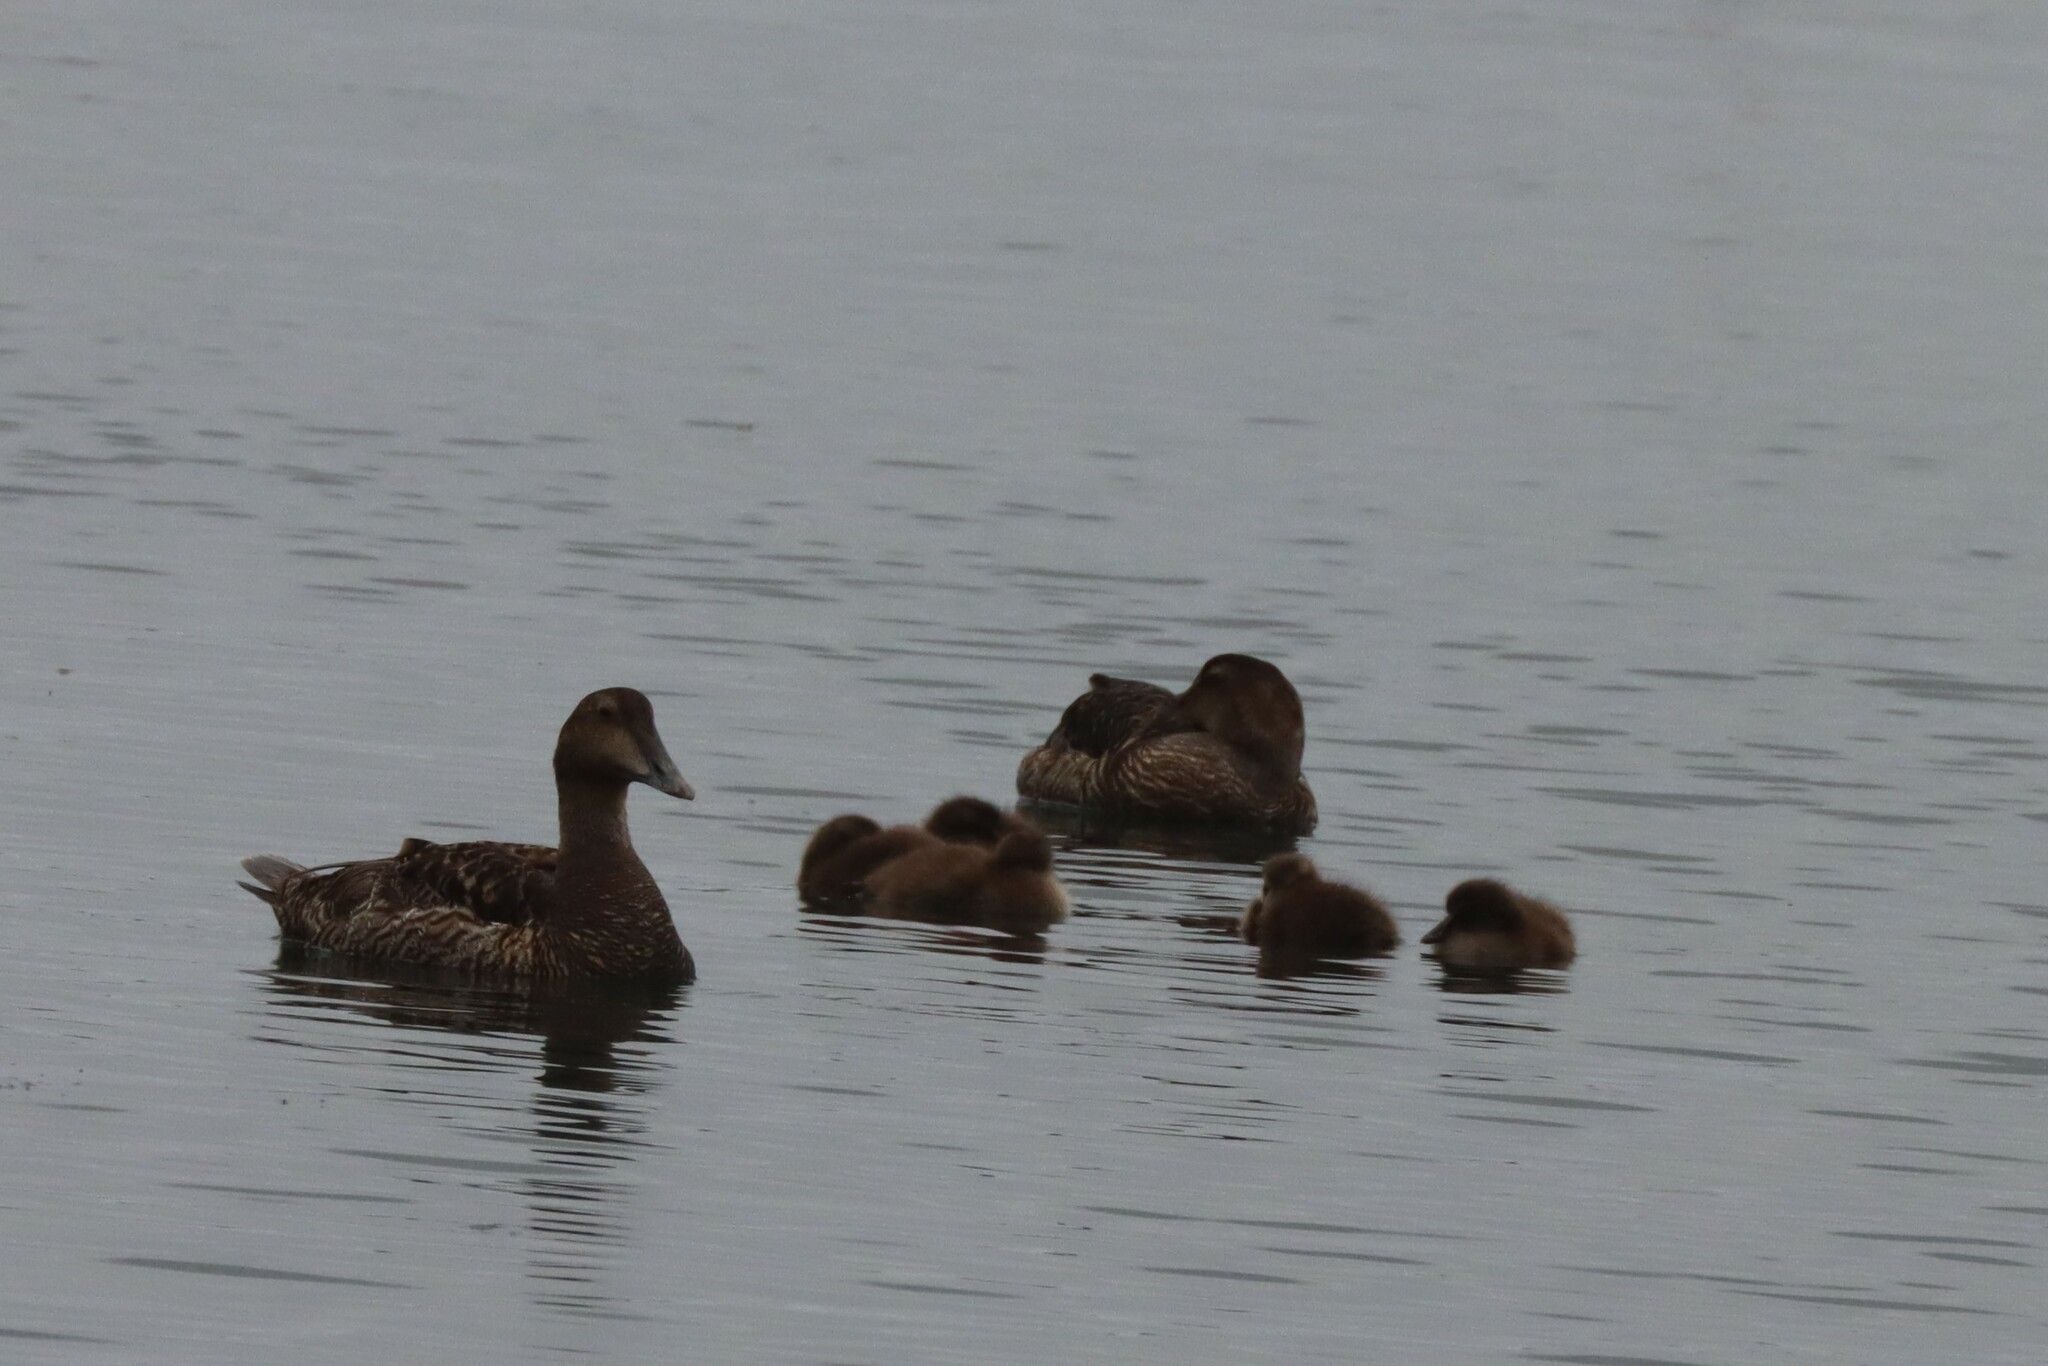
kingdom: Animalia
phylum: Chordata
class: Aves
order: Anseriformes
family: Anatidae
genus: Somateria
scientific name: Somateria mollissima
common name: Common eider
